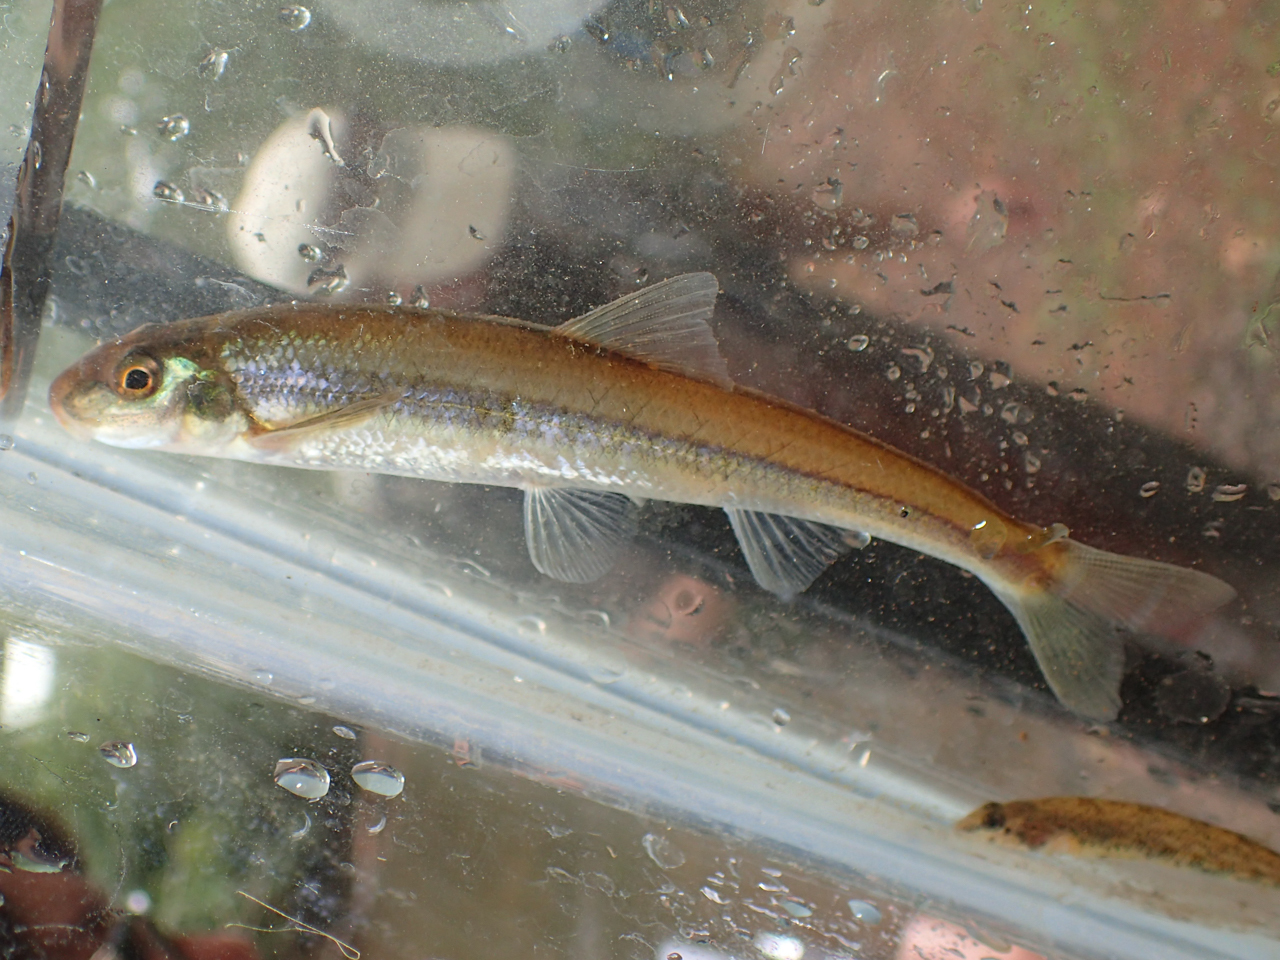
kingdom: Animalia
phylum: Chordata
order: Cypriniformes
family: Cyprinidae
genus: Phenacobius
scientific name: Phenacobius catostomus
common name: Riffle minnow
